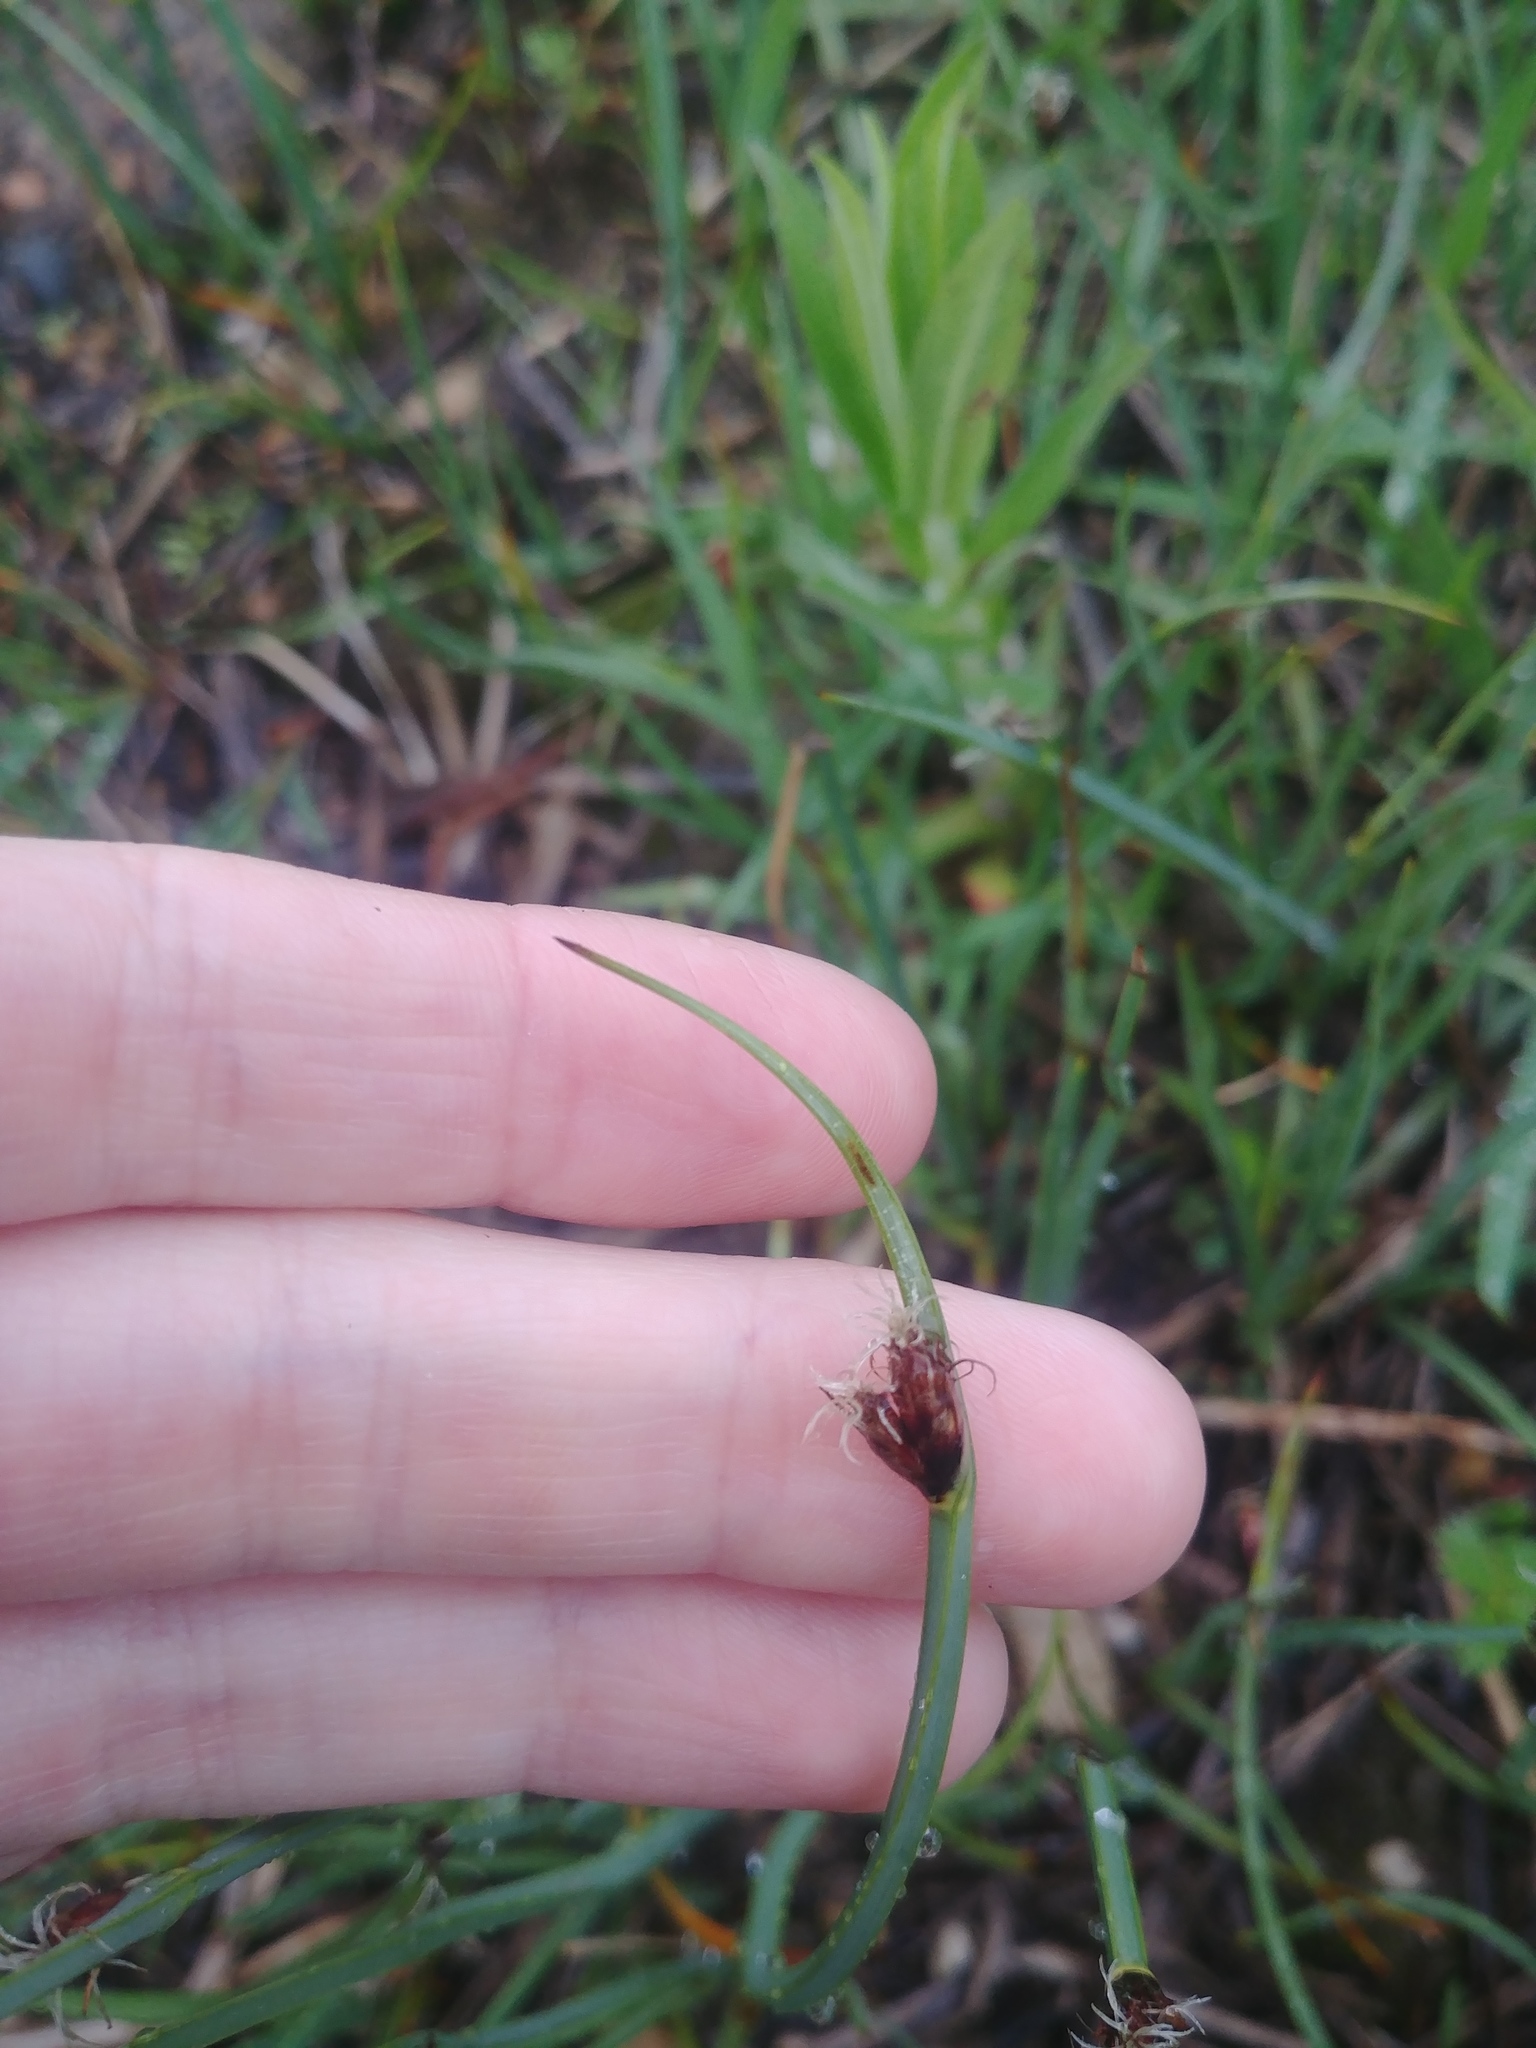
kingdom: Plantae
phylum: Tracheophyta
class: Liliopsida
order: Poales
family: Cyperaceae
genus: Schoenoplectus
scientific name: Schoenoplectus pungens
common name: Sharp club-rush
